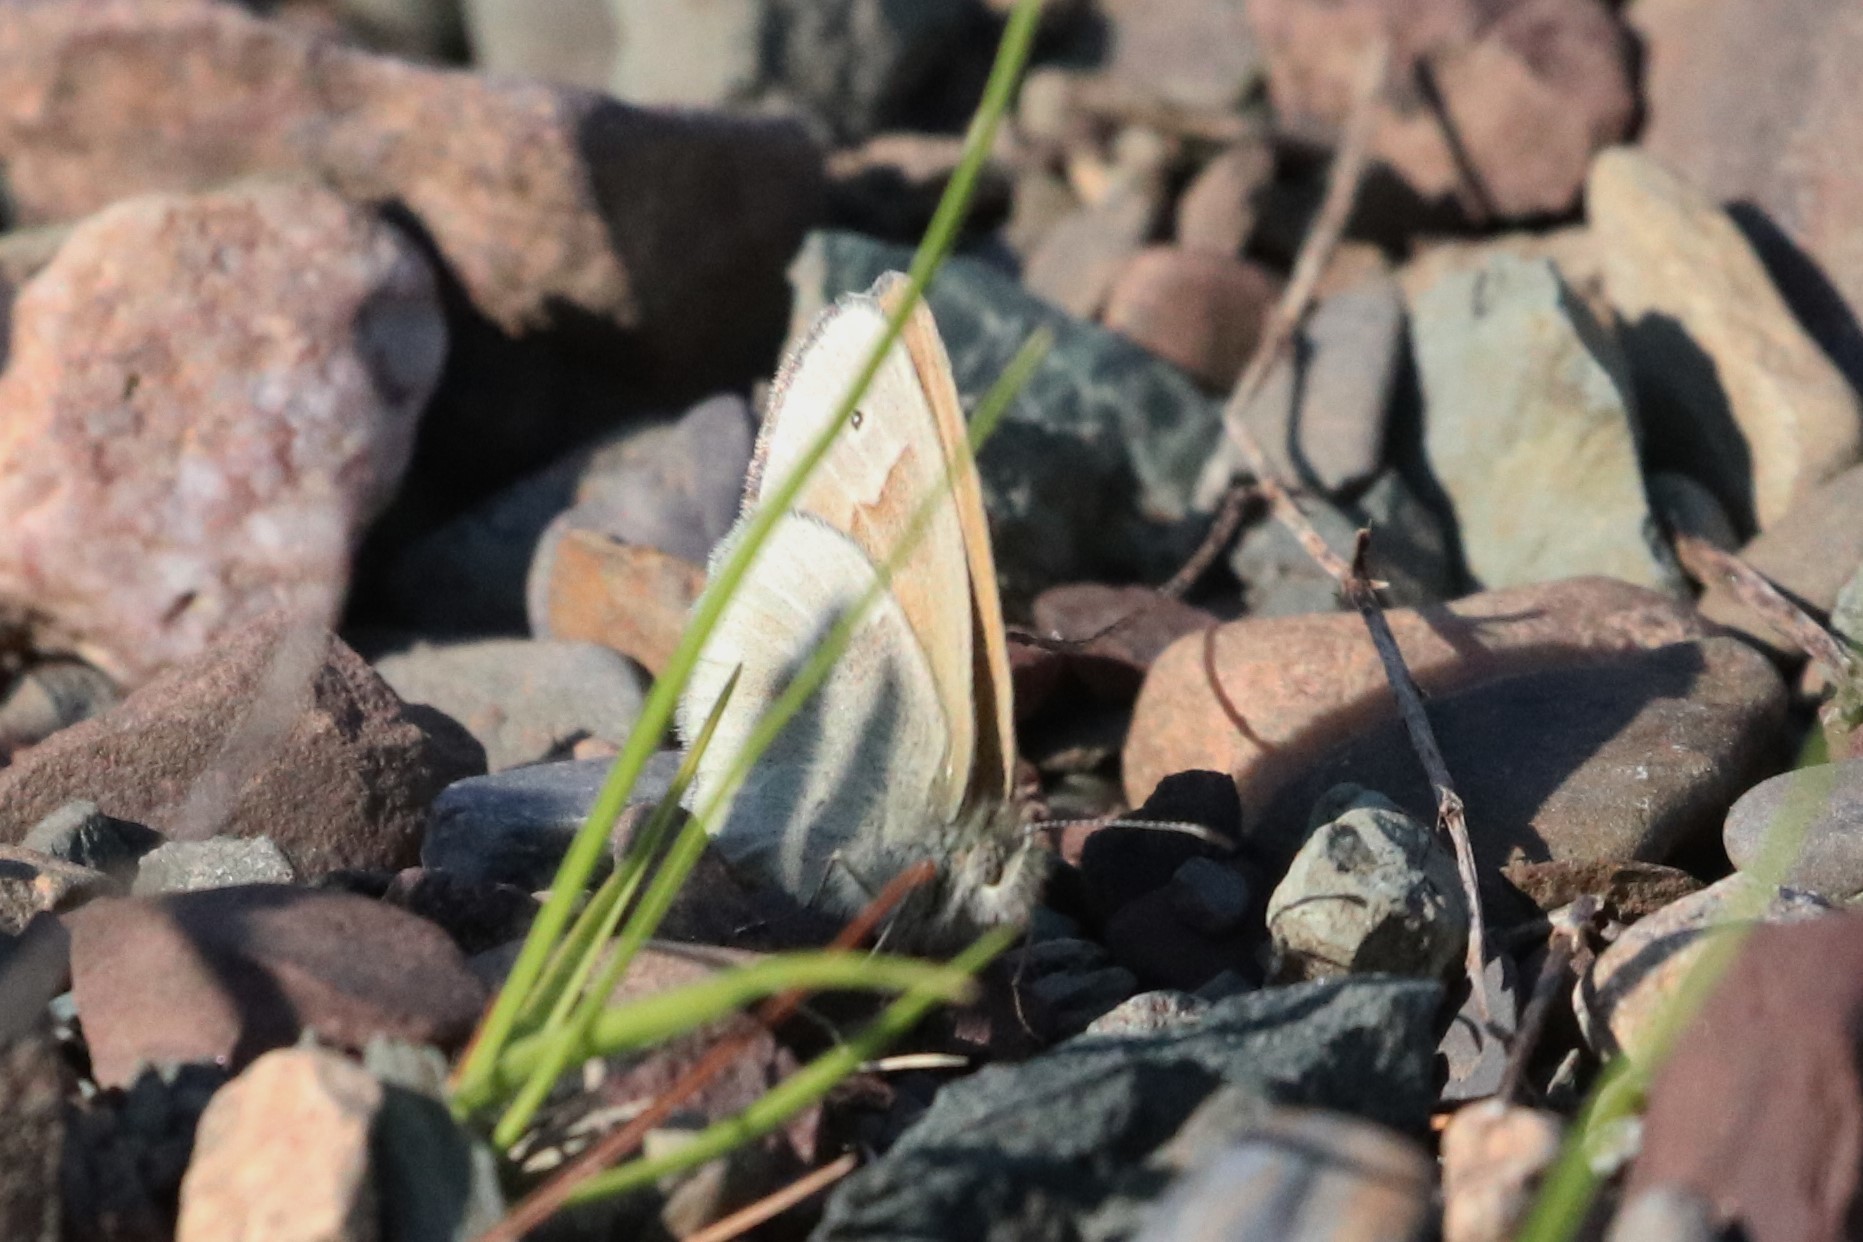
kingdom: Animalia
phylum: Arthropoda
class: Insecta
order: Lepidoptera
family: Nymphalidae
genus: Coenonympha
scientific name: Coenonympha california
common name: Common ringlet
